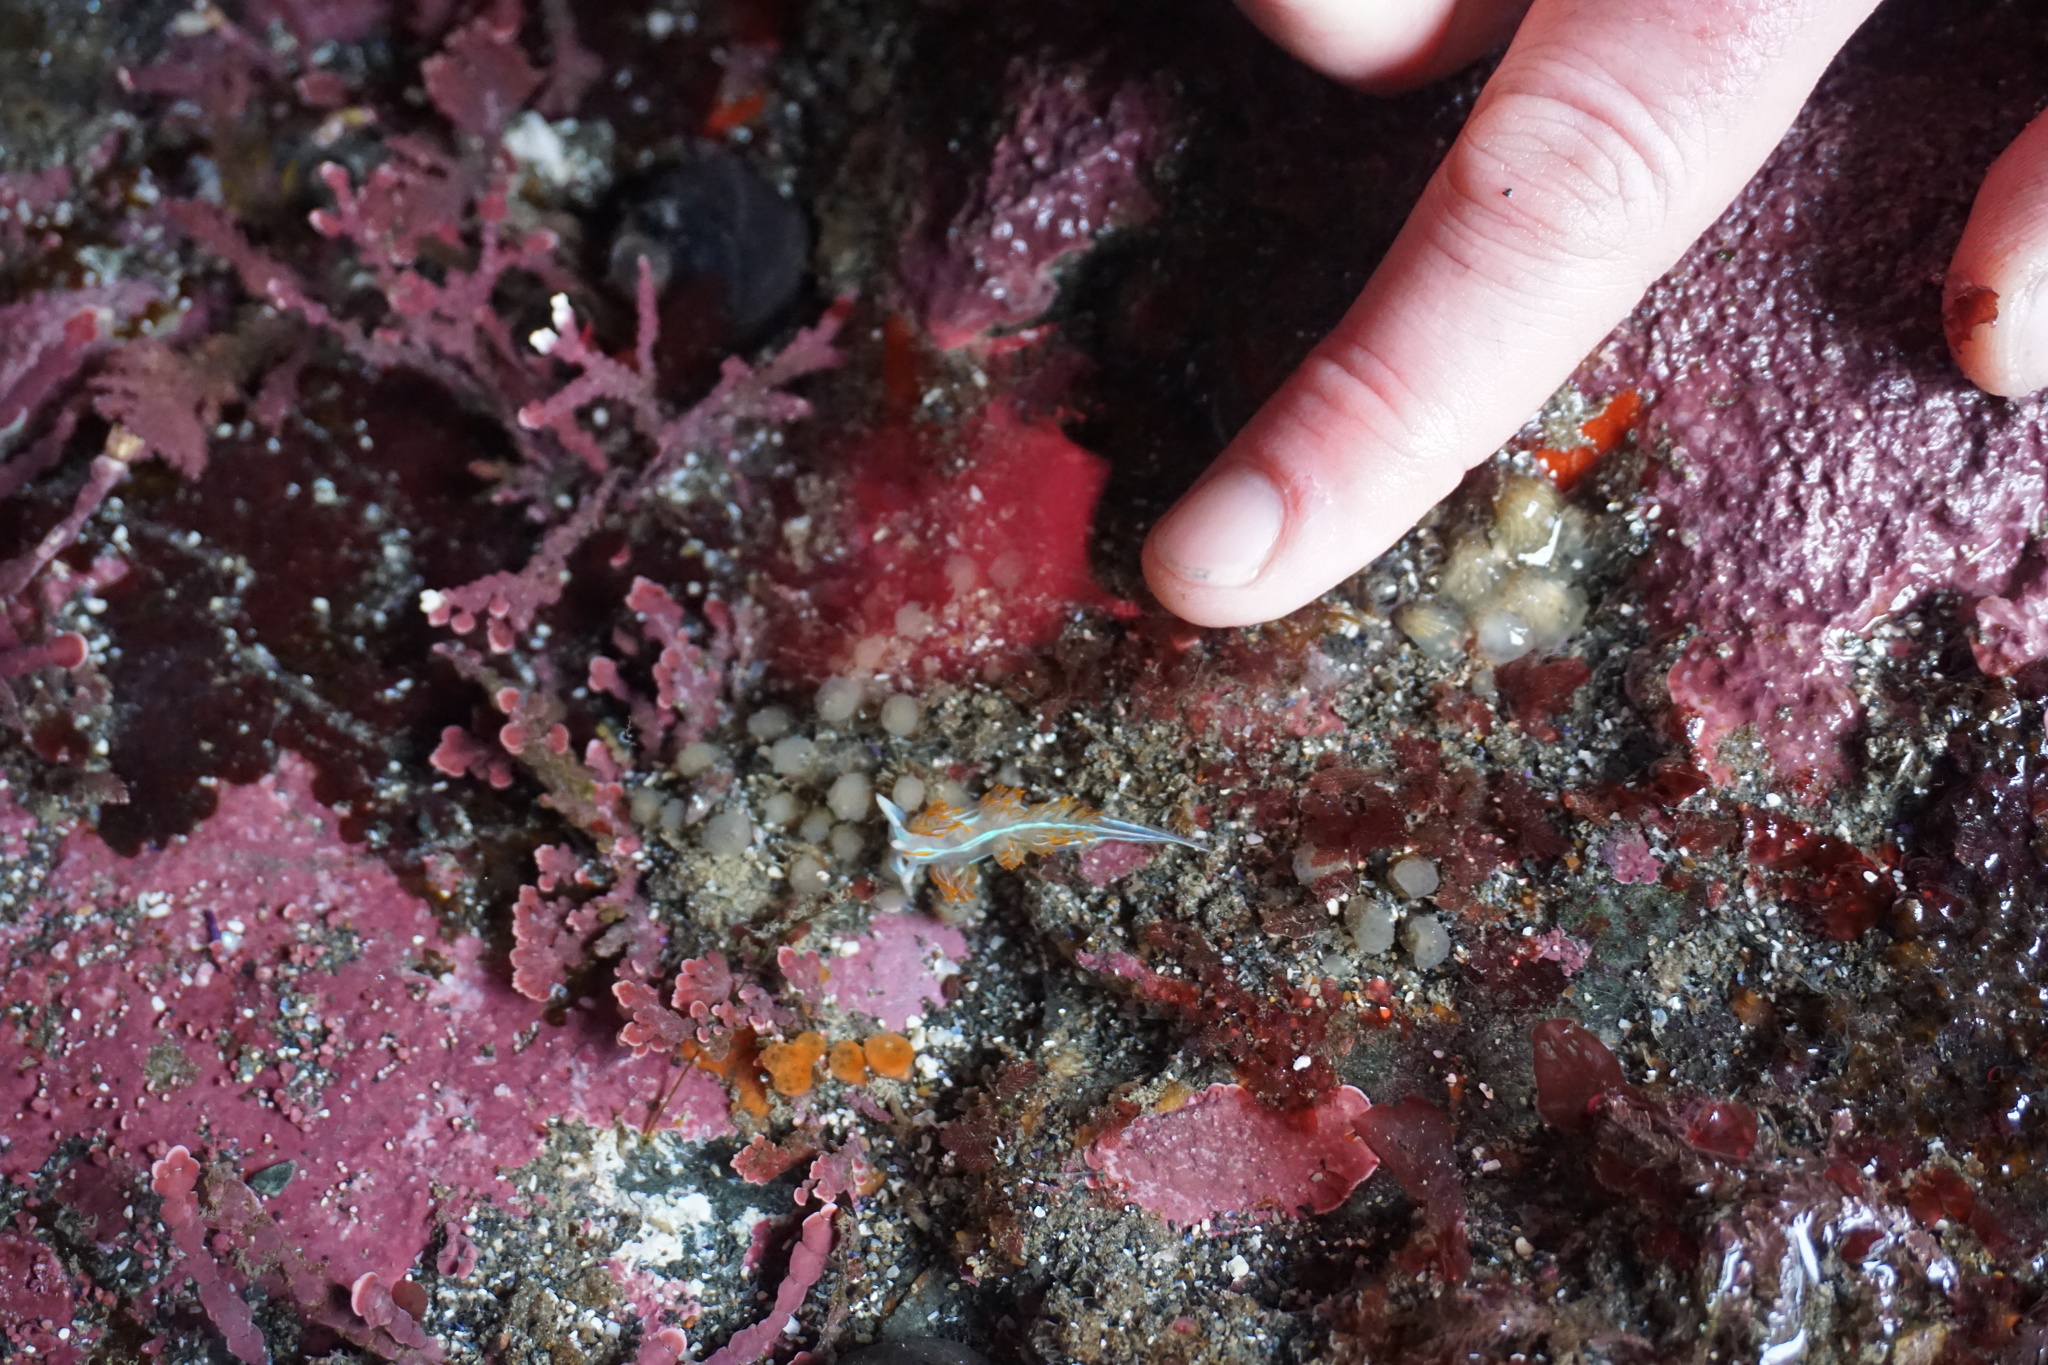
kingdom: Animalia
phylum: Mollusca
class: Gastropoda
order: Nudibranchia
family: Myrrhinidae
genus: Hermissenda
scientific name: Hermissenda crassicornis
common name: Hermissenda
